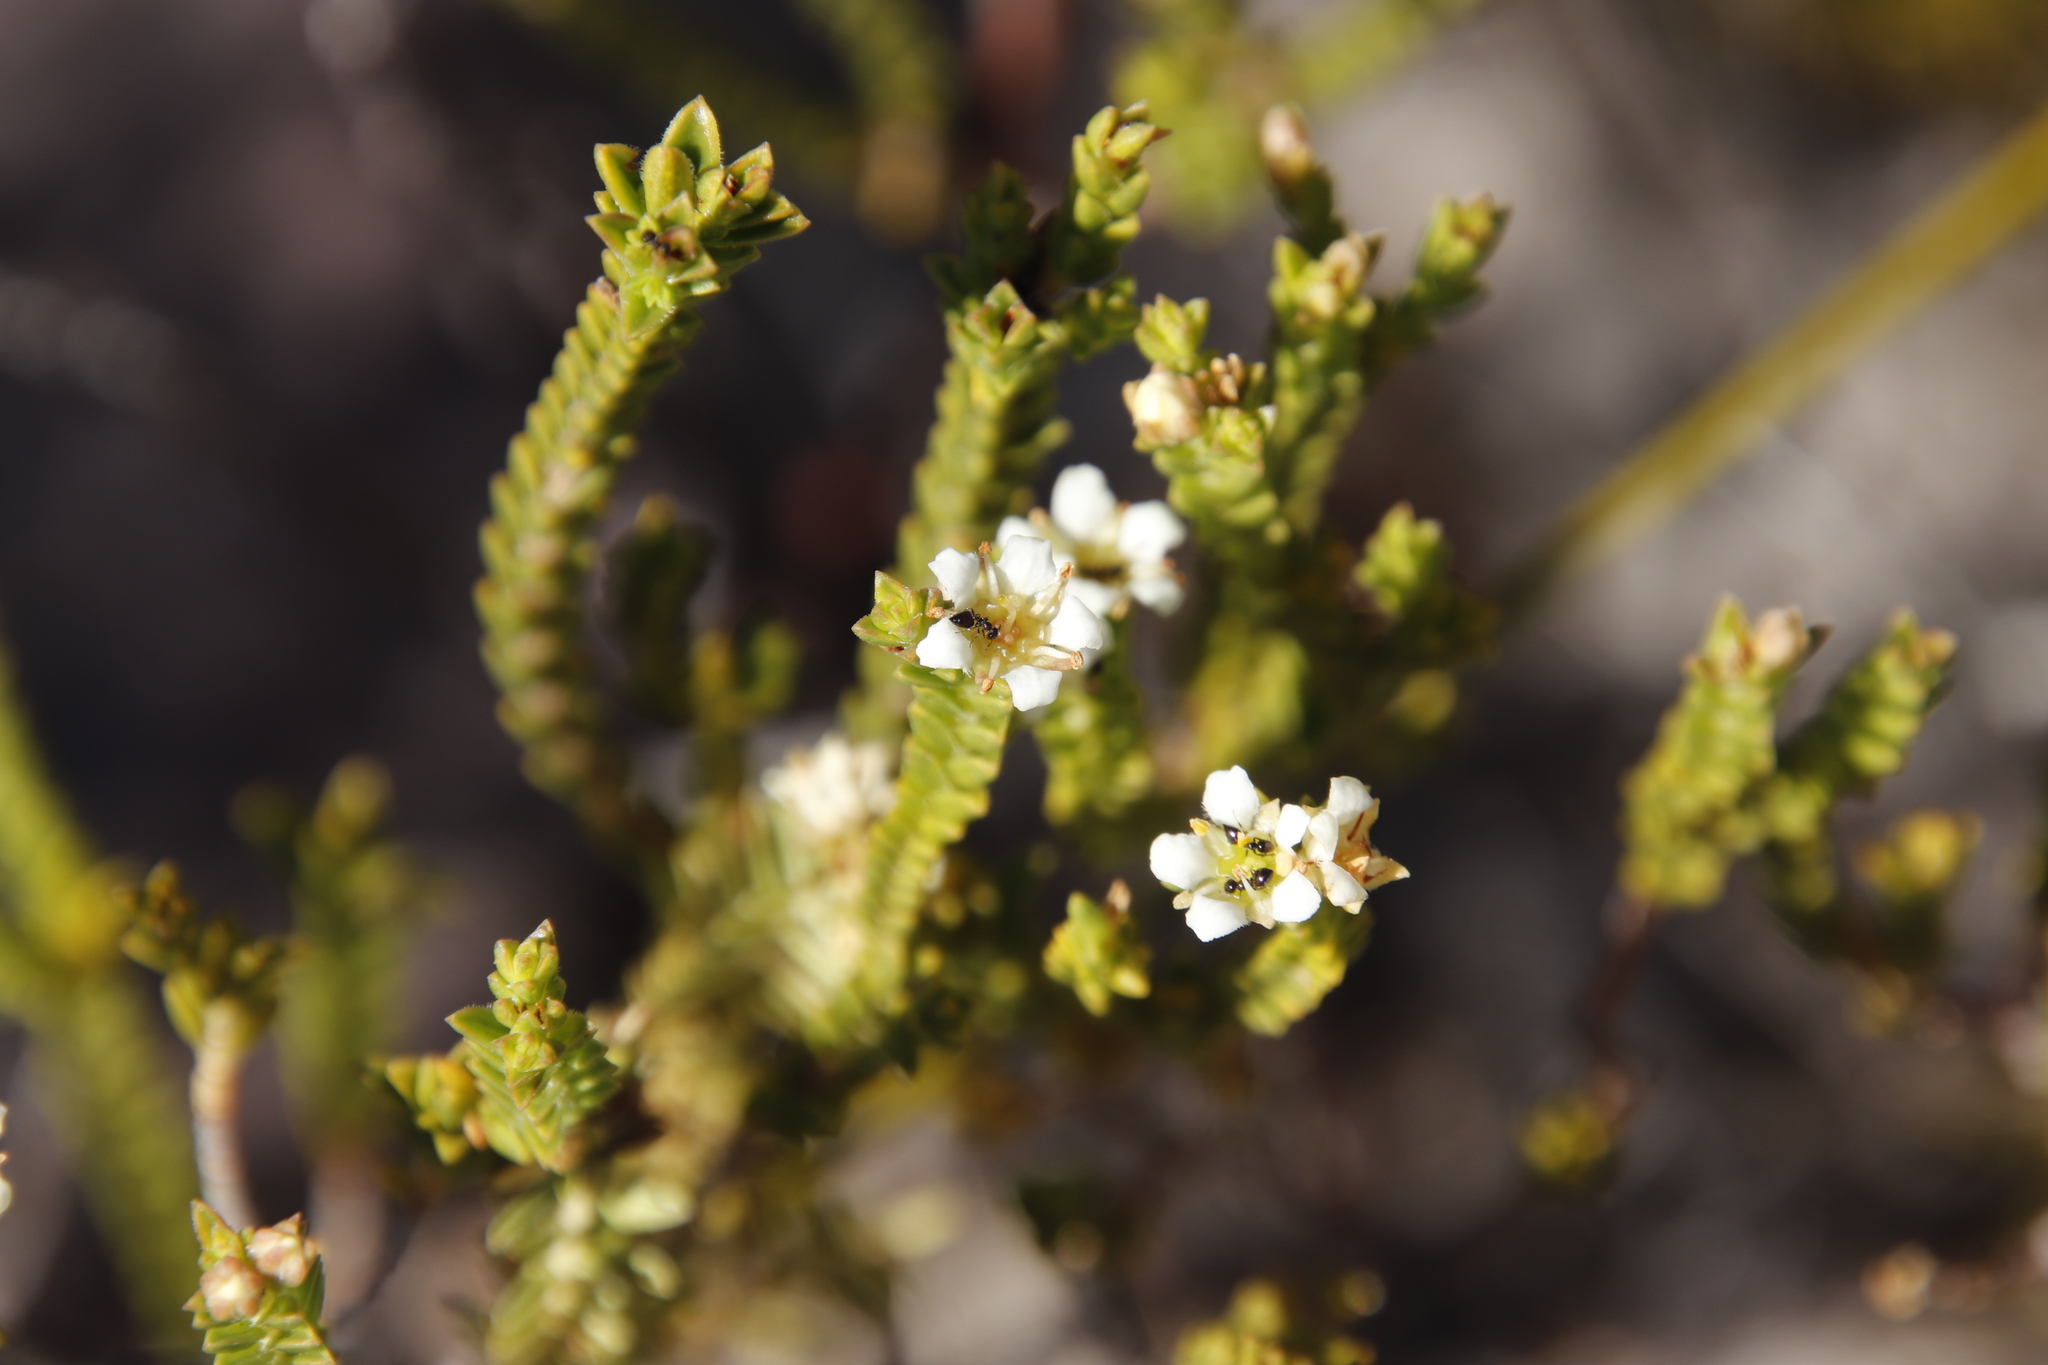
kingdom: Animalia
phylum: Arthropoda
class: Insecta
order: Hymenoptera
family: Formicidae
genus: Crematogaster
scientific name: Crematogaster peringueyi
